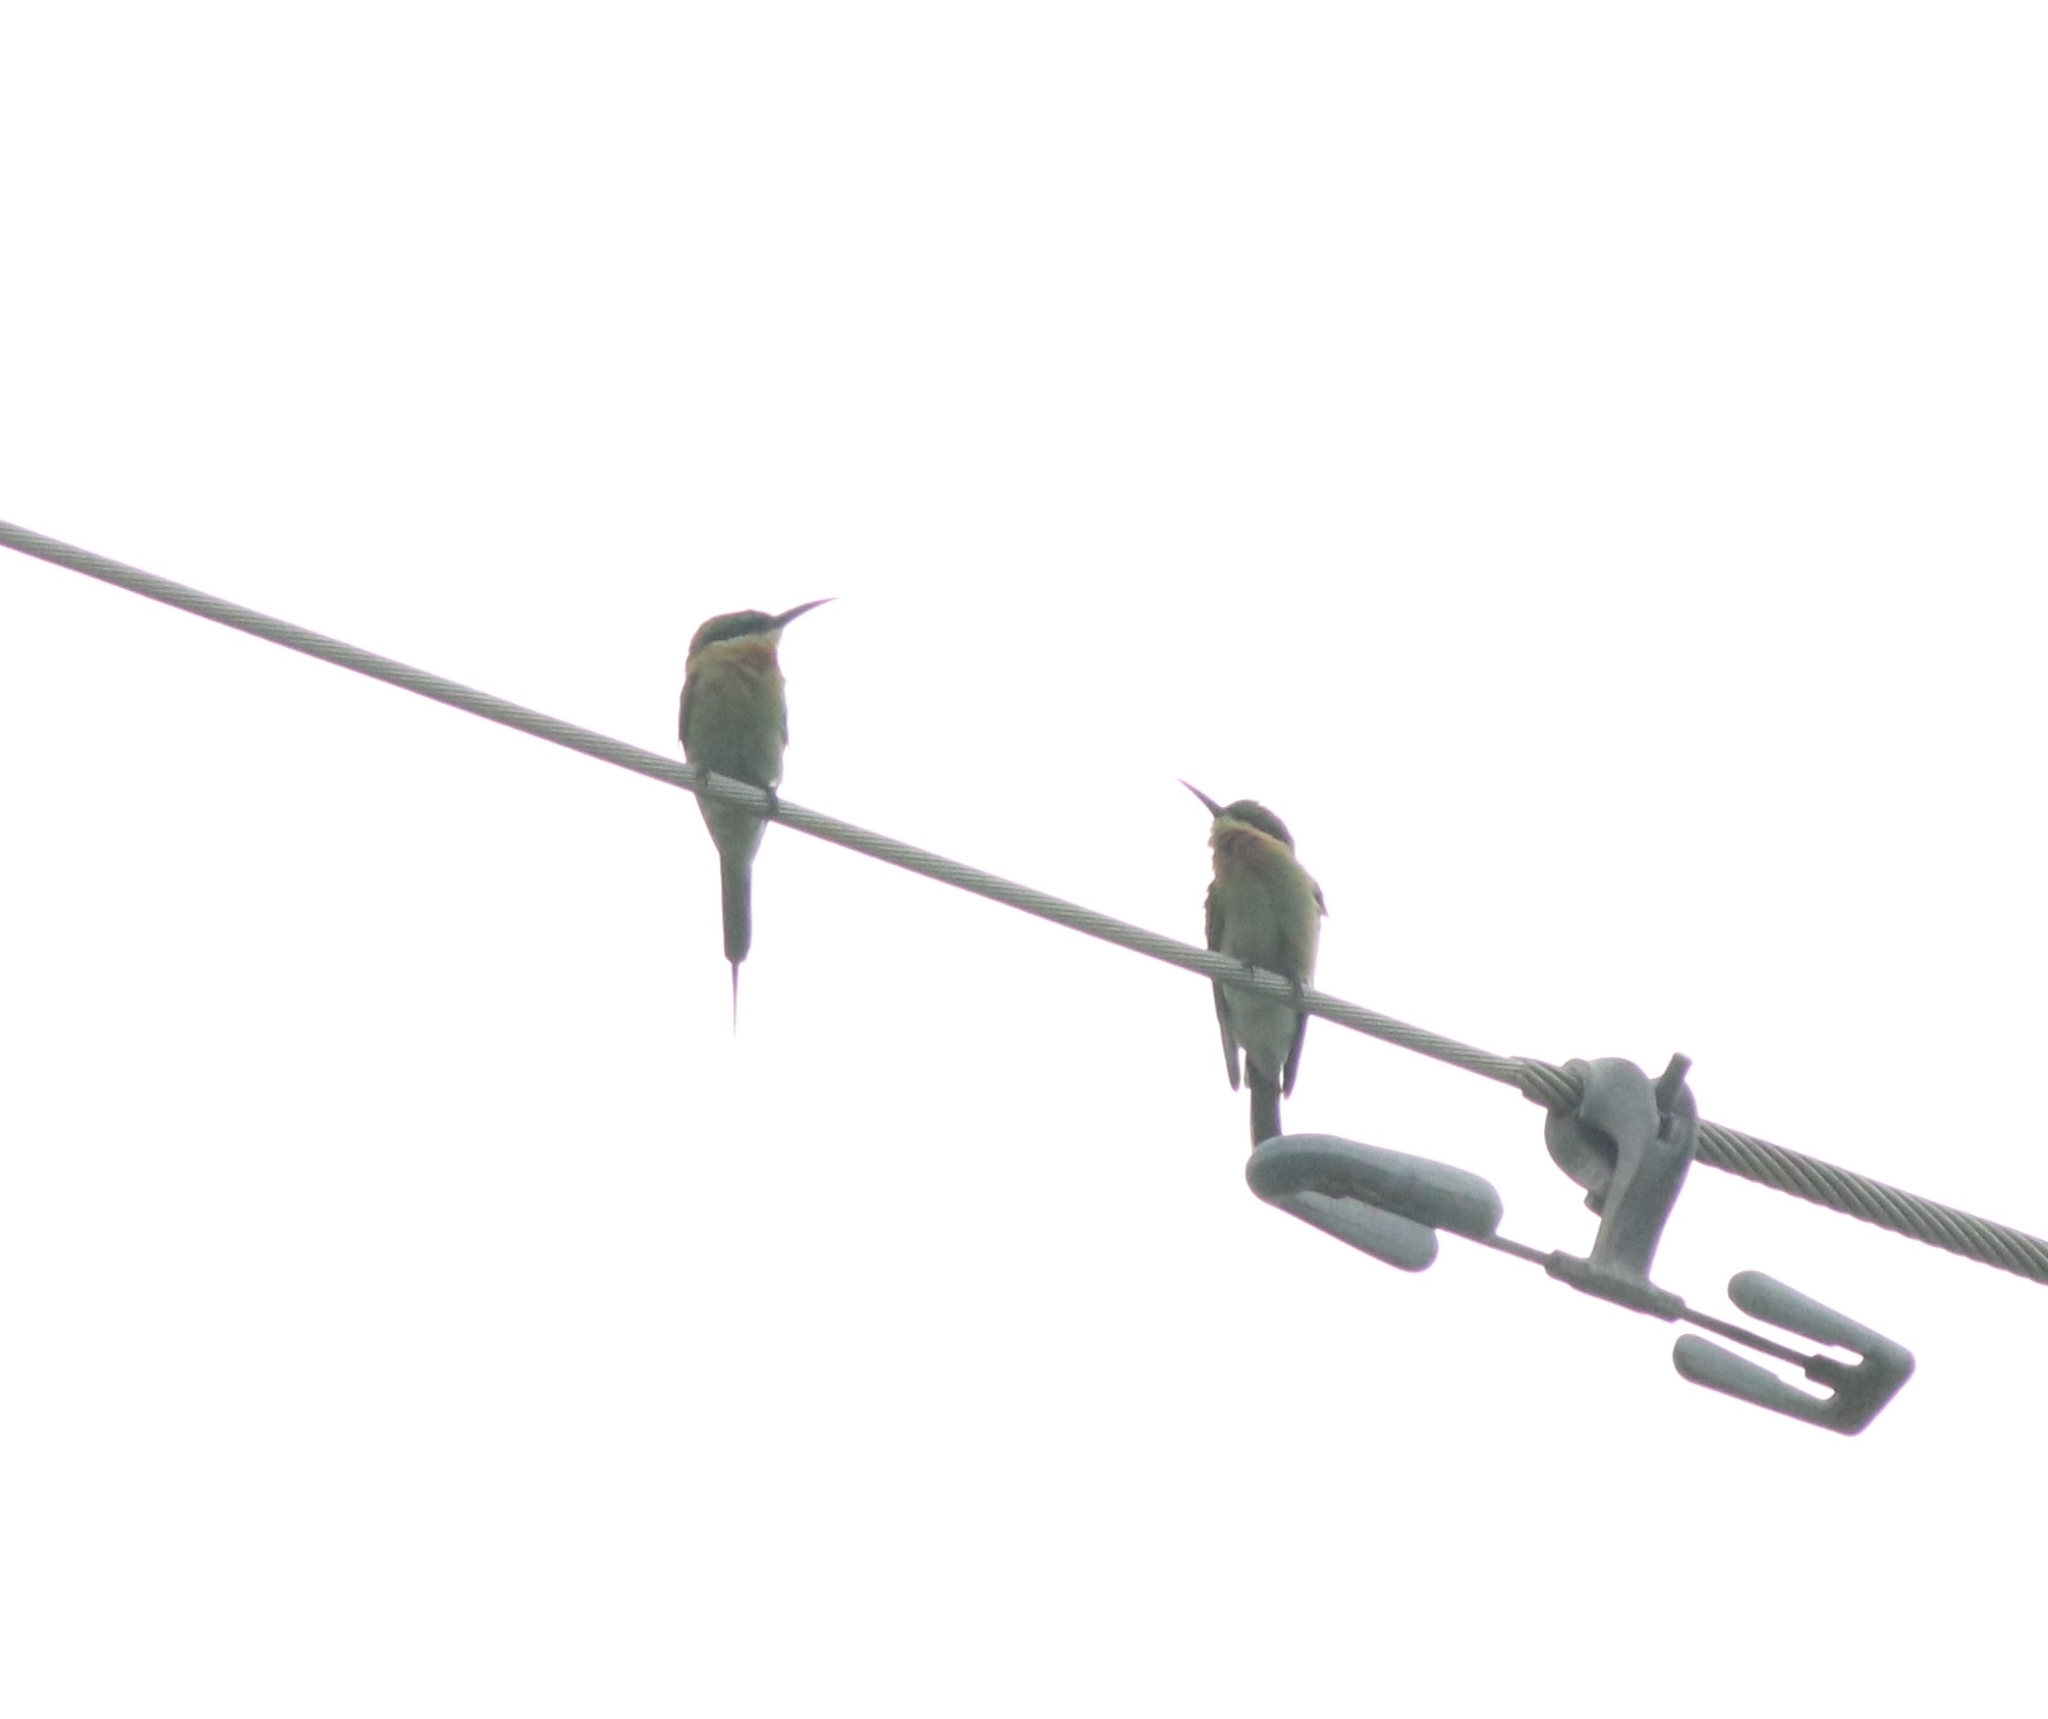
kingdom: Animalia
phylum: Chordata
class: Aves
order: Coraciiformes
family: Meropidae
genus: Merops
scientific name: Merops philippinus
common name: Blue-tailed bee-eater
